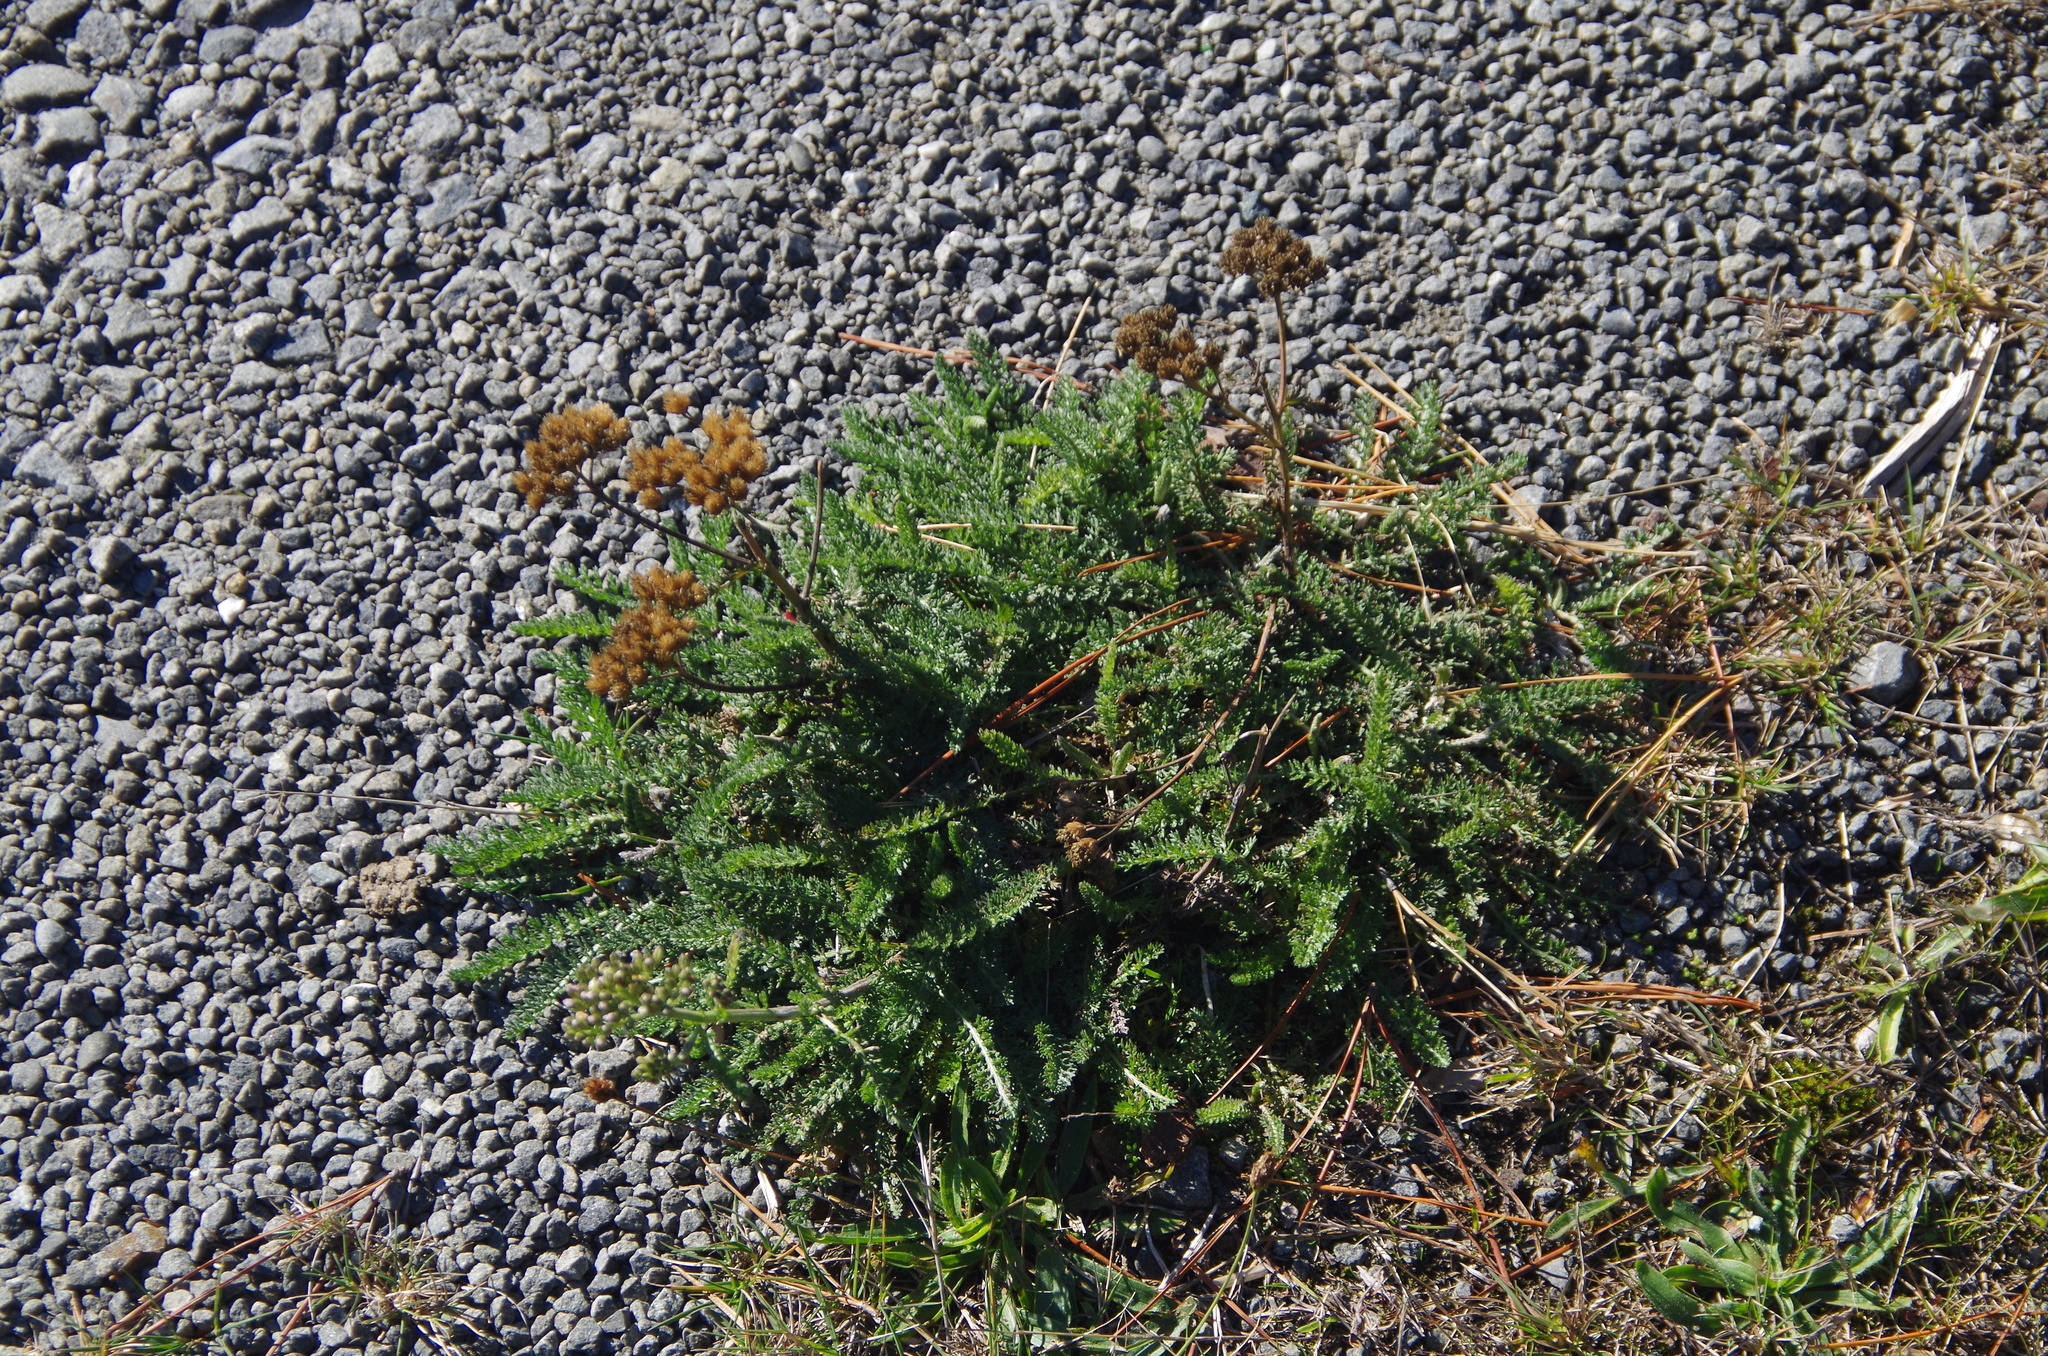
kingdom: Plantae
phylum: Tracheophyta
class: Magnoliopsida
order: Asterales
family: Asteraceae
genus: Achillea
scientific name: Achillea millefolium
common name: Yarrow
